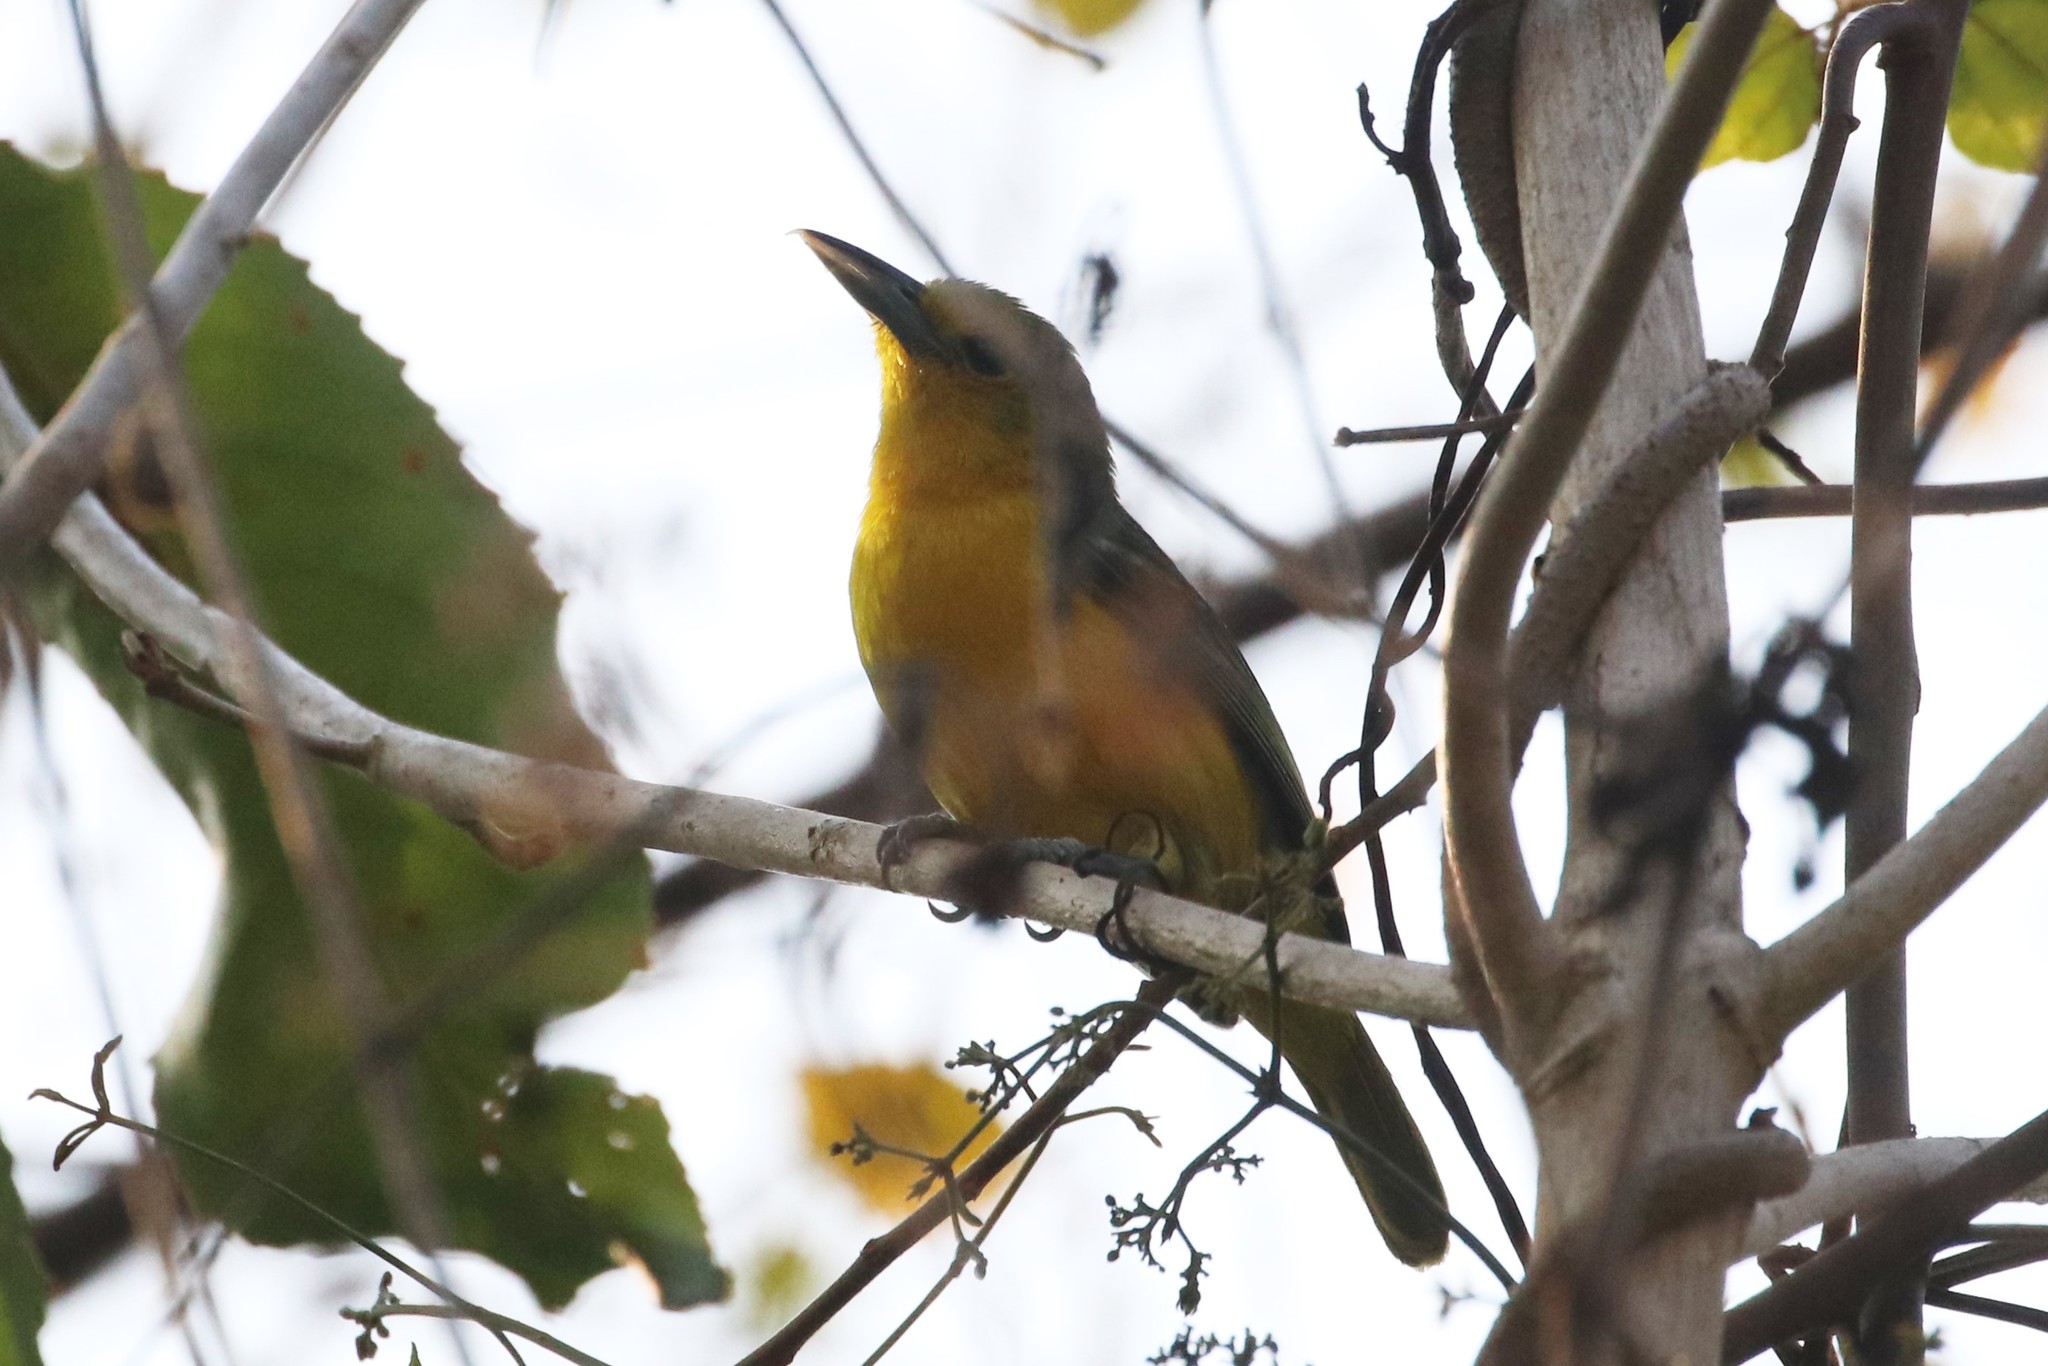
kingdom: Animalia
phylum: Chordata
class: Aves
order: Passeriformes
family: Aegithinidae
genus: Aegithina
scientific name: Aegithina tiphia
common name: Common iora
